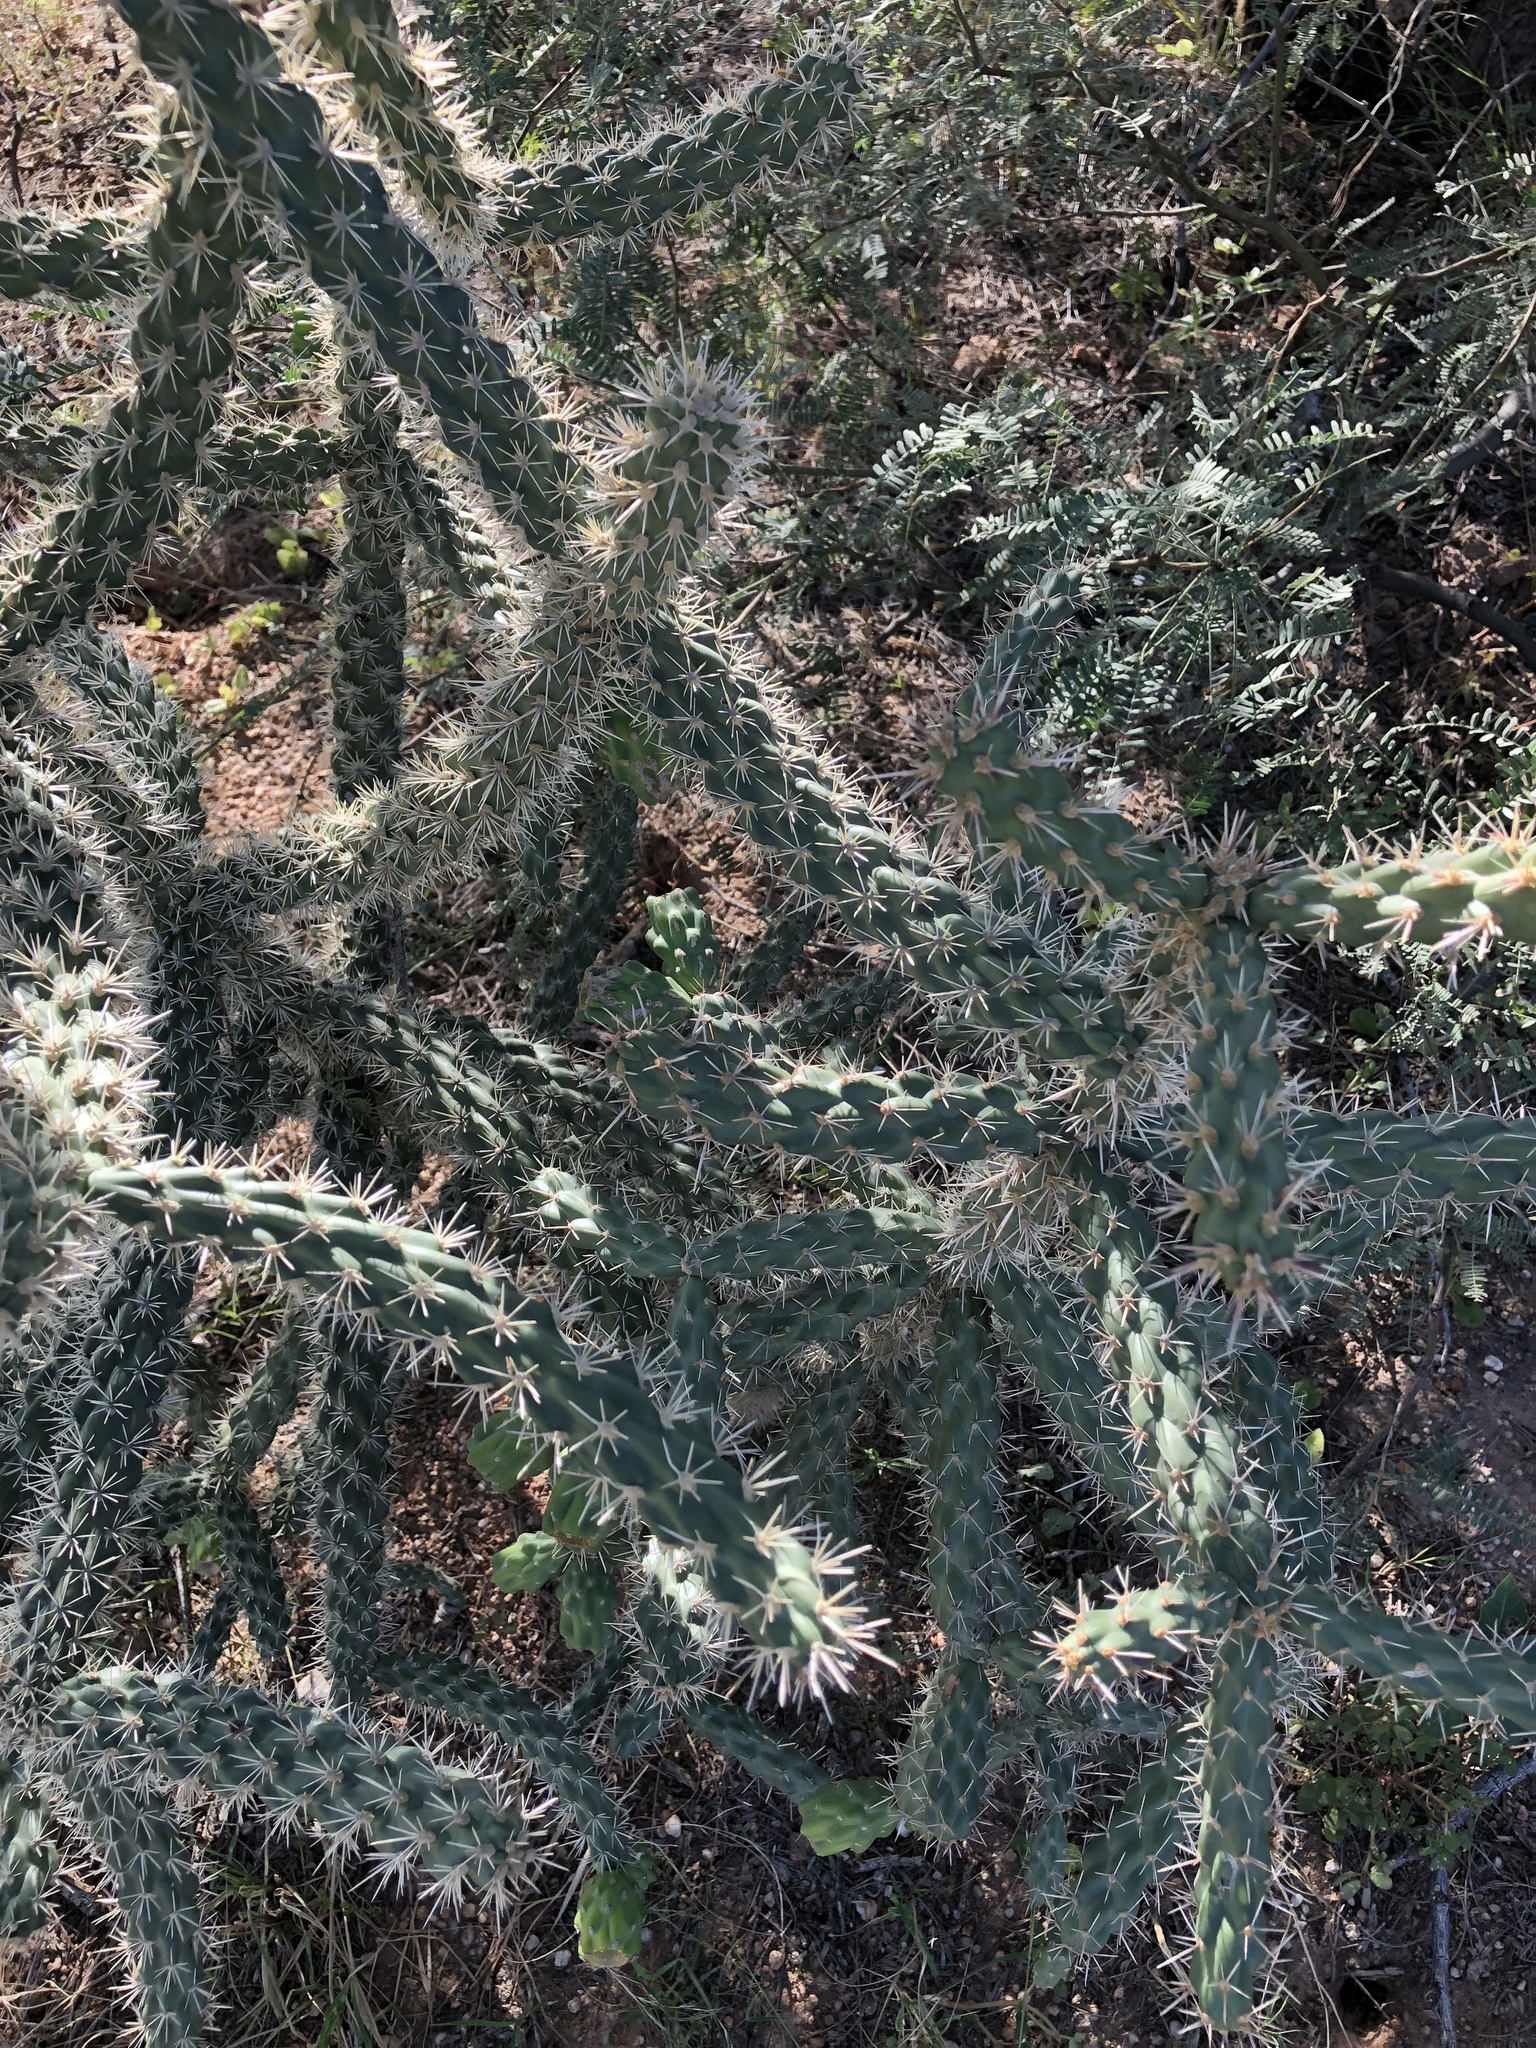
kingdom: Plantae
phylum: Tracheophyta
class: Magnoliopsida
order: Caryophyllales
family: Cactaceae
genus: Cylindropuntia
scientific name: Cylindropuntia imbricata
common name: Candelabrum cactus
